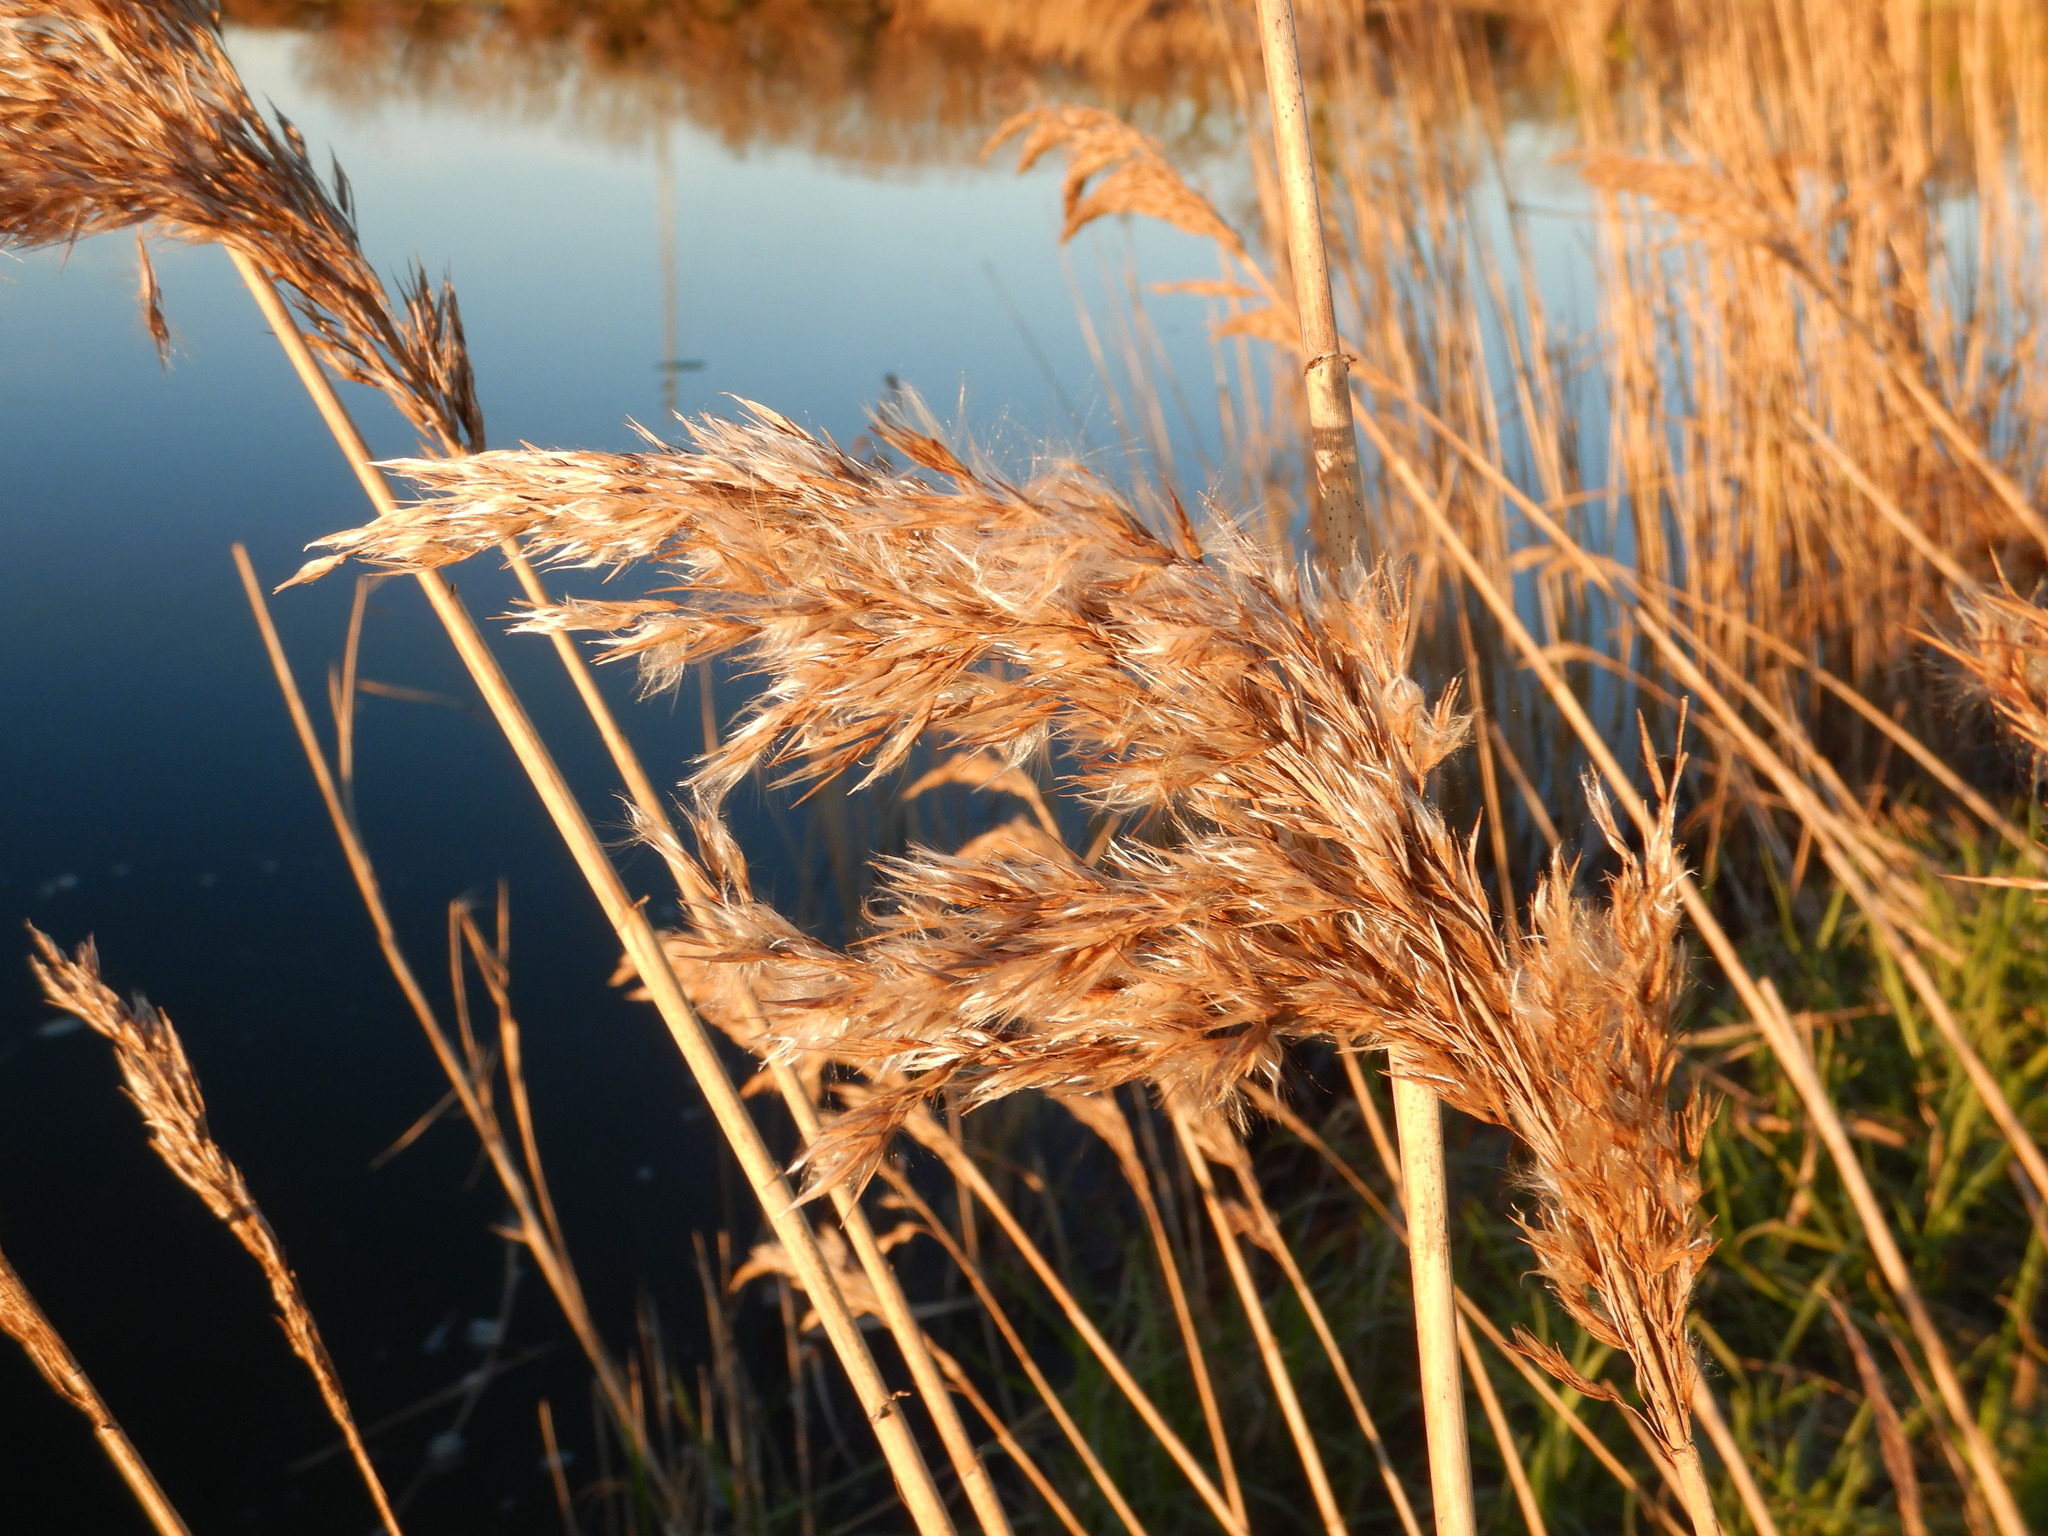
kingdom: Plantae
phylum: Tracheophyta
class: Liliopsida
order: Poales
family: Poaceae
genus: Phragmites
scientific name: Phragmites australis
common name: Common reed
